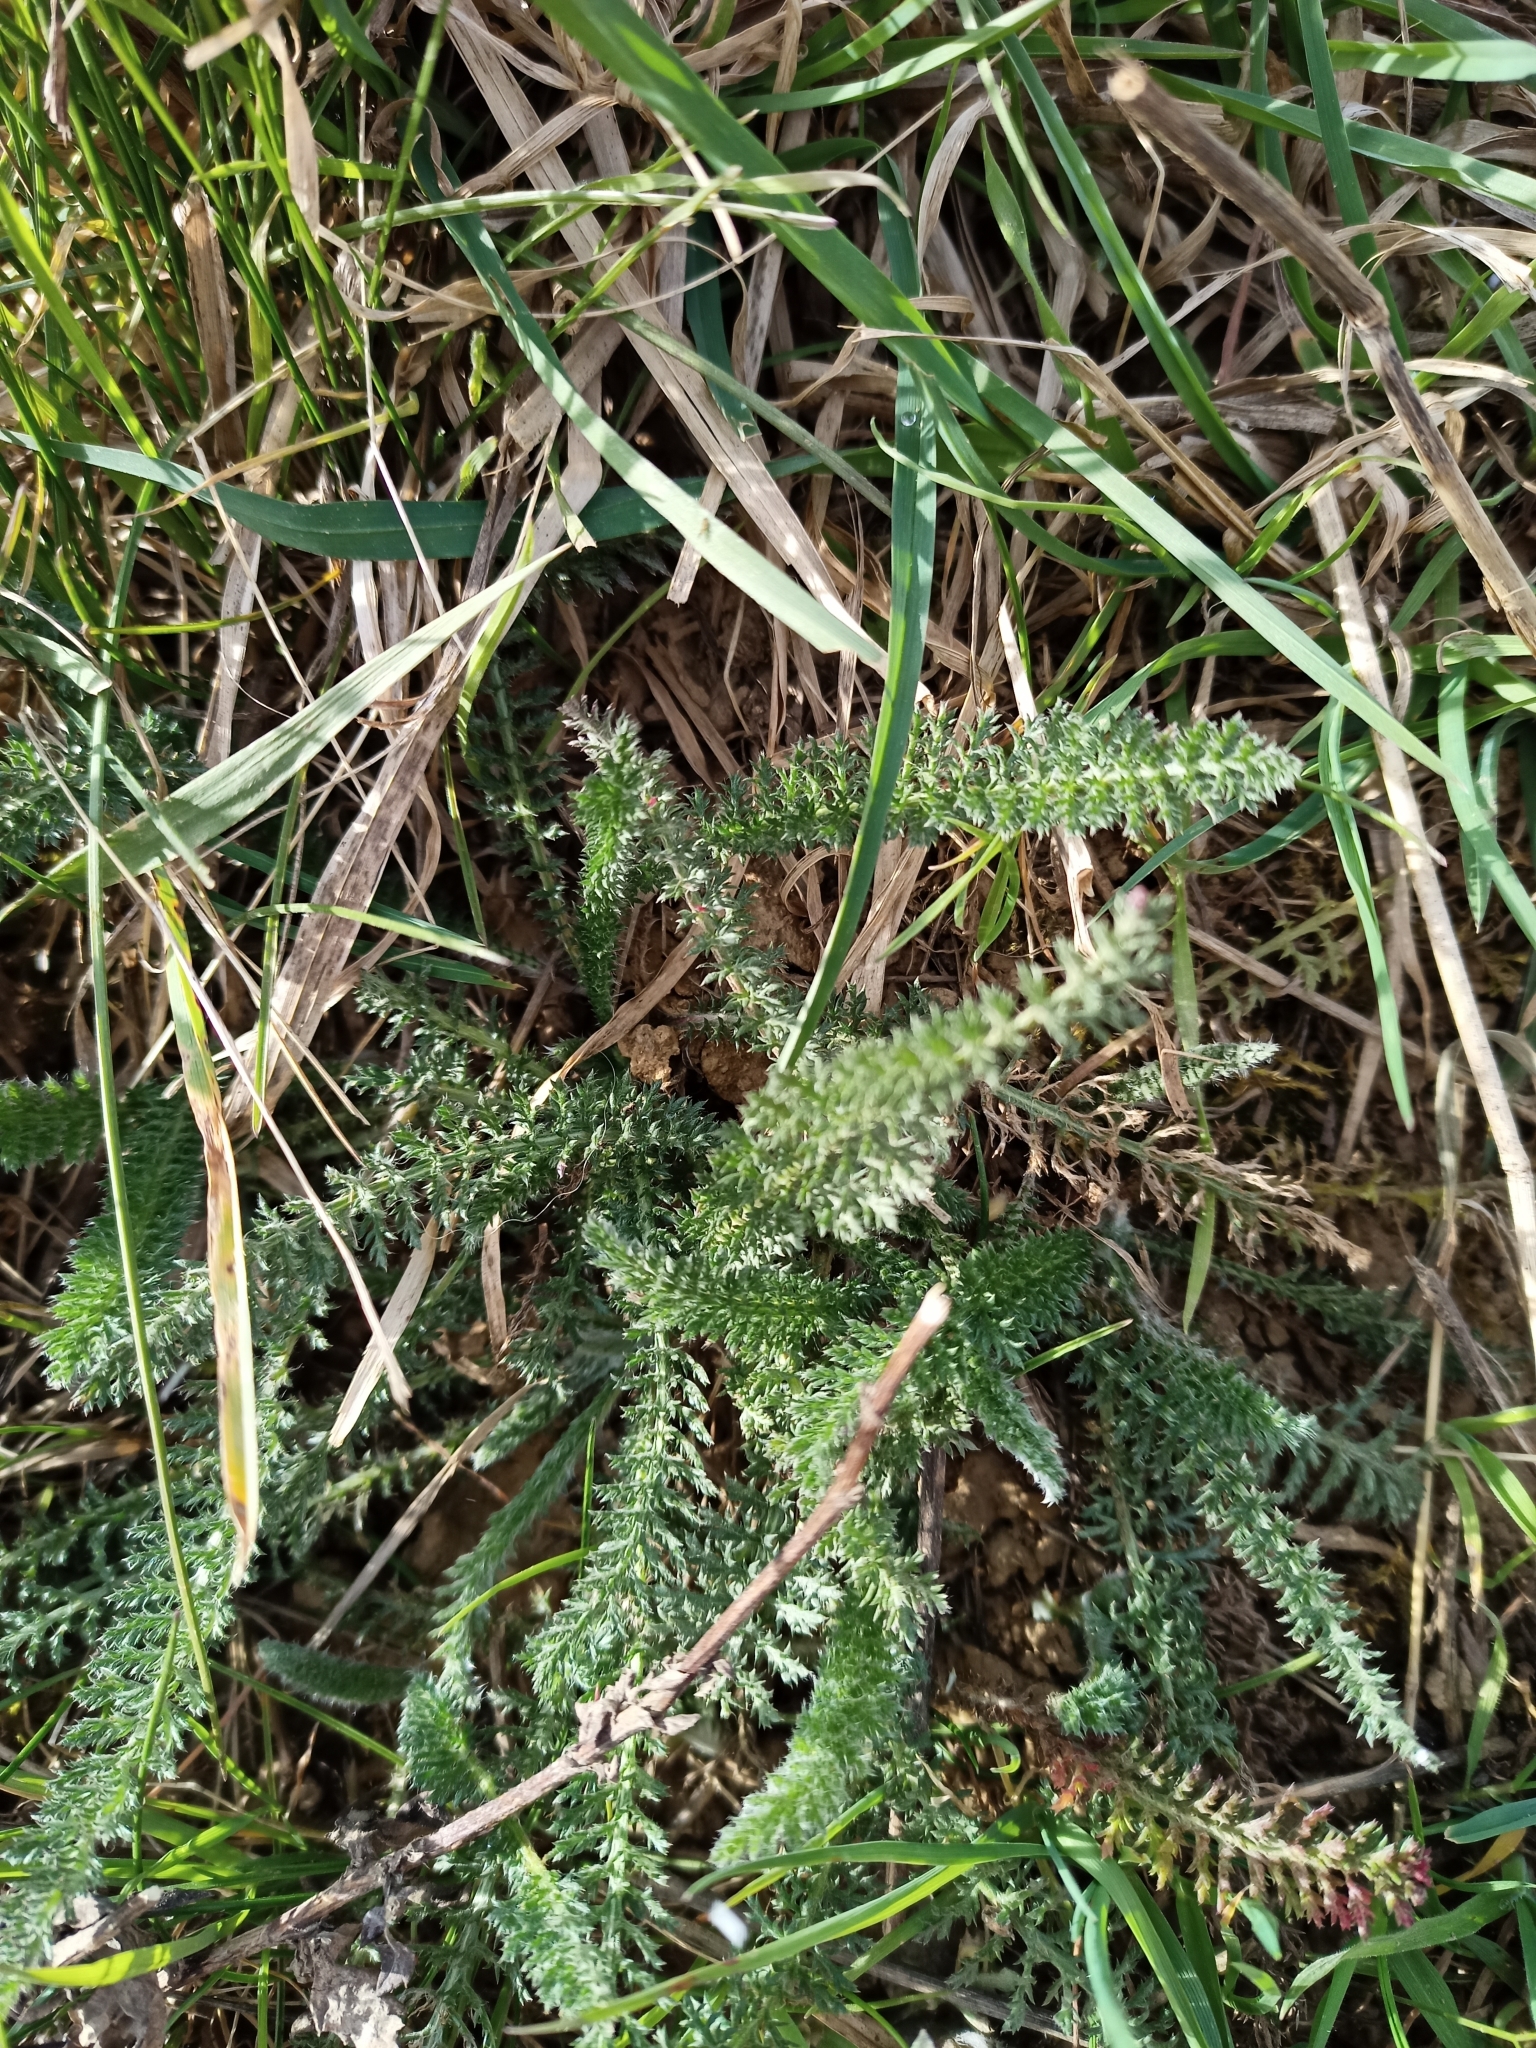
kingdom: Plantae
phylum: Tracheophyta
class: Magnoliopsida
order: Asterales
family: Asteraceae
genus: Achillea
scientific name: Achillea millefolium
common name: Yarrow
